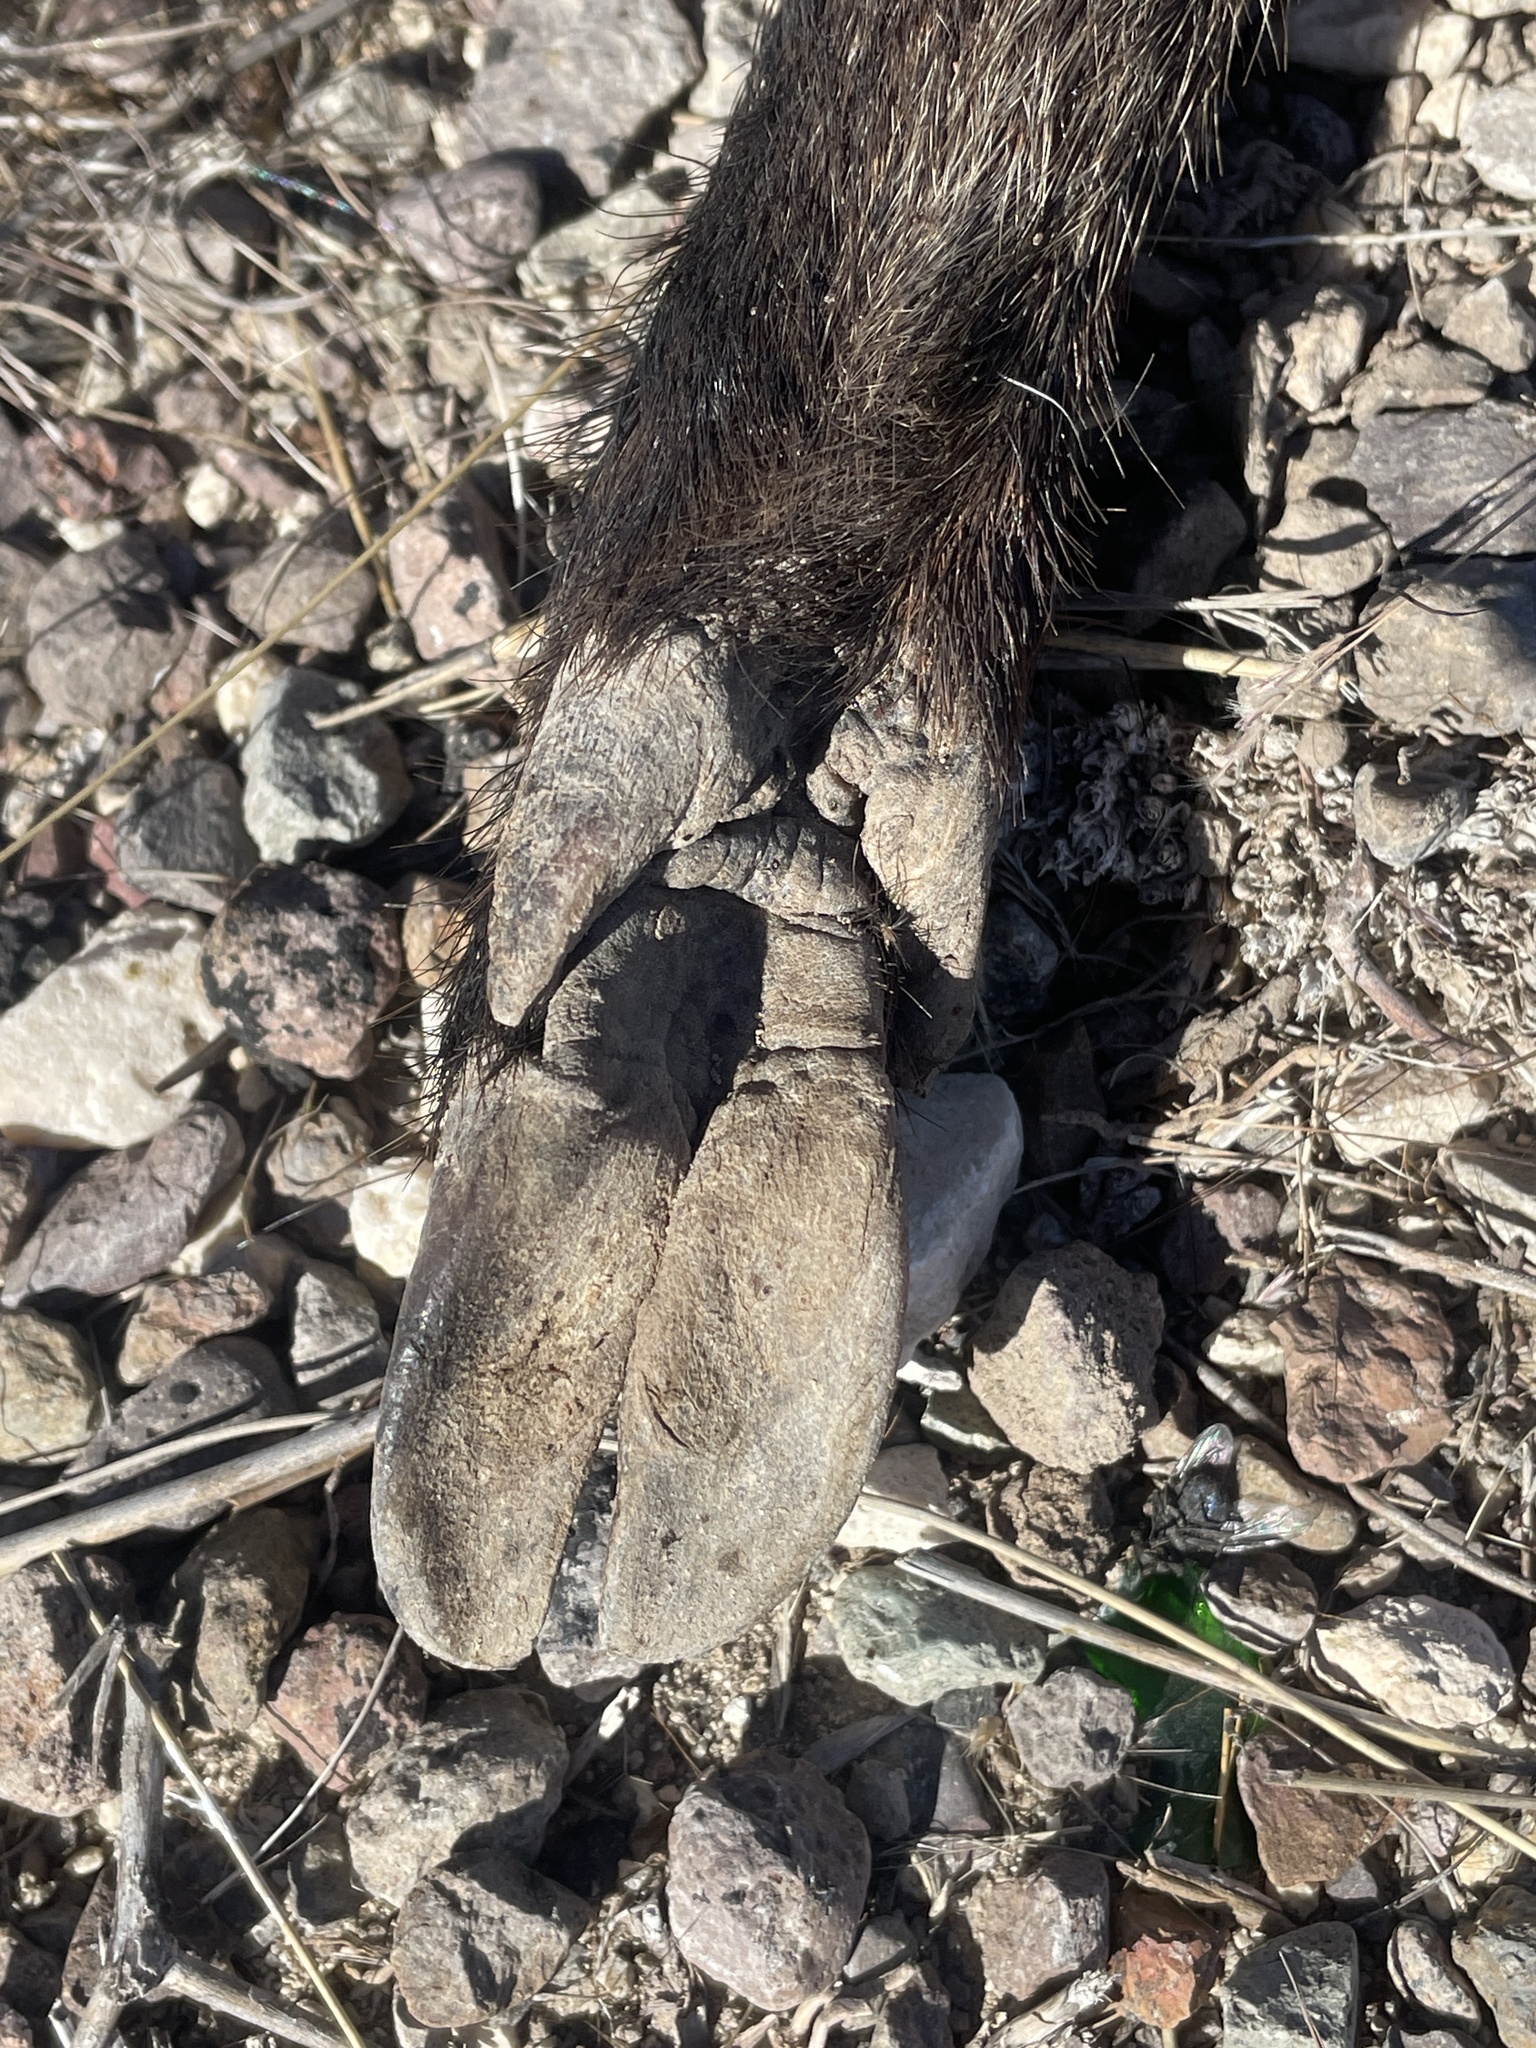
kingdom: Animalia
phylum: Chordata
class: Mammalia
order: Artiodactyla
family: Tayassuidae
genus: Pecari
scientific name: Pecari tajacu
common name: Collared peccary
